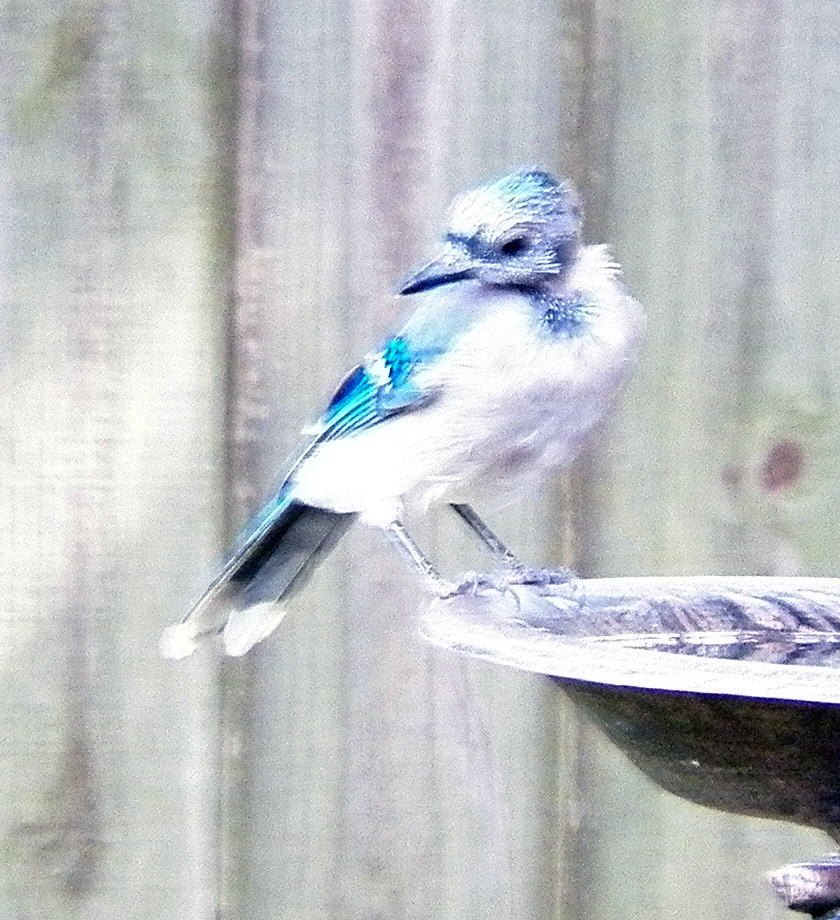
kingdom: Animalia
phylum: Chordata
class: Aves
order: Passeriformes
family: Corvidae
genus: Cyanocitta
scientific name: Cyanocitta cristata
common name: Blue jay
